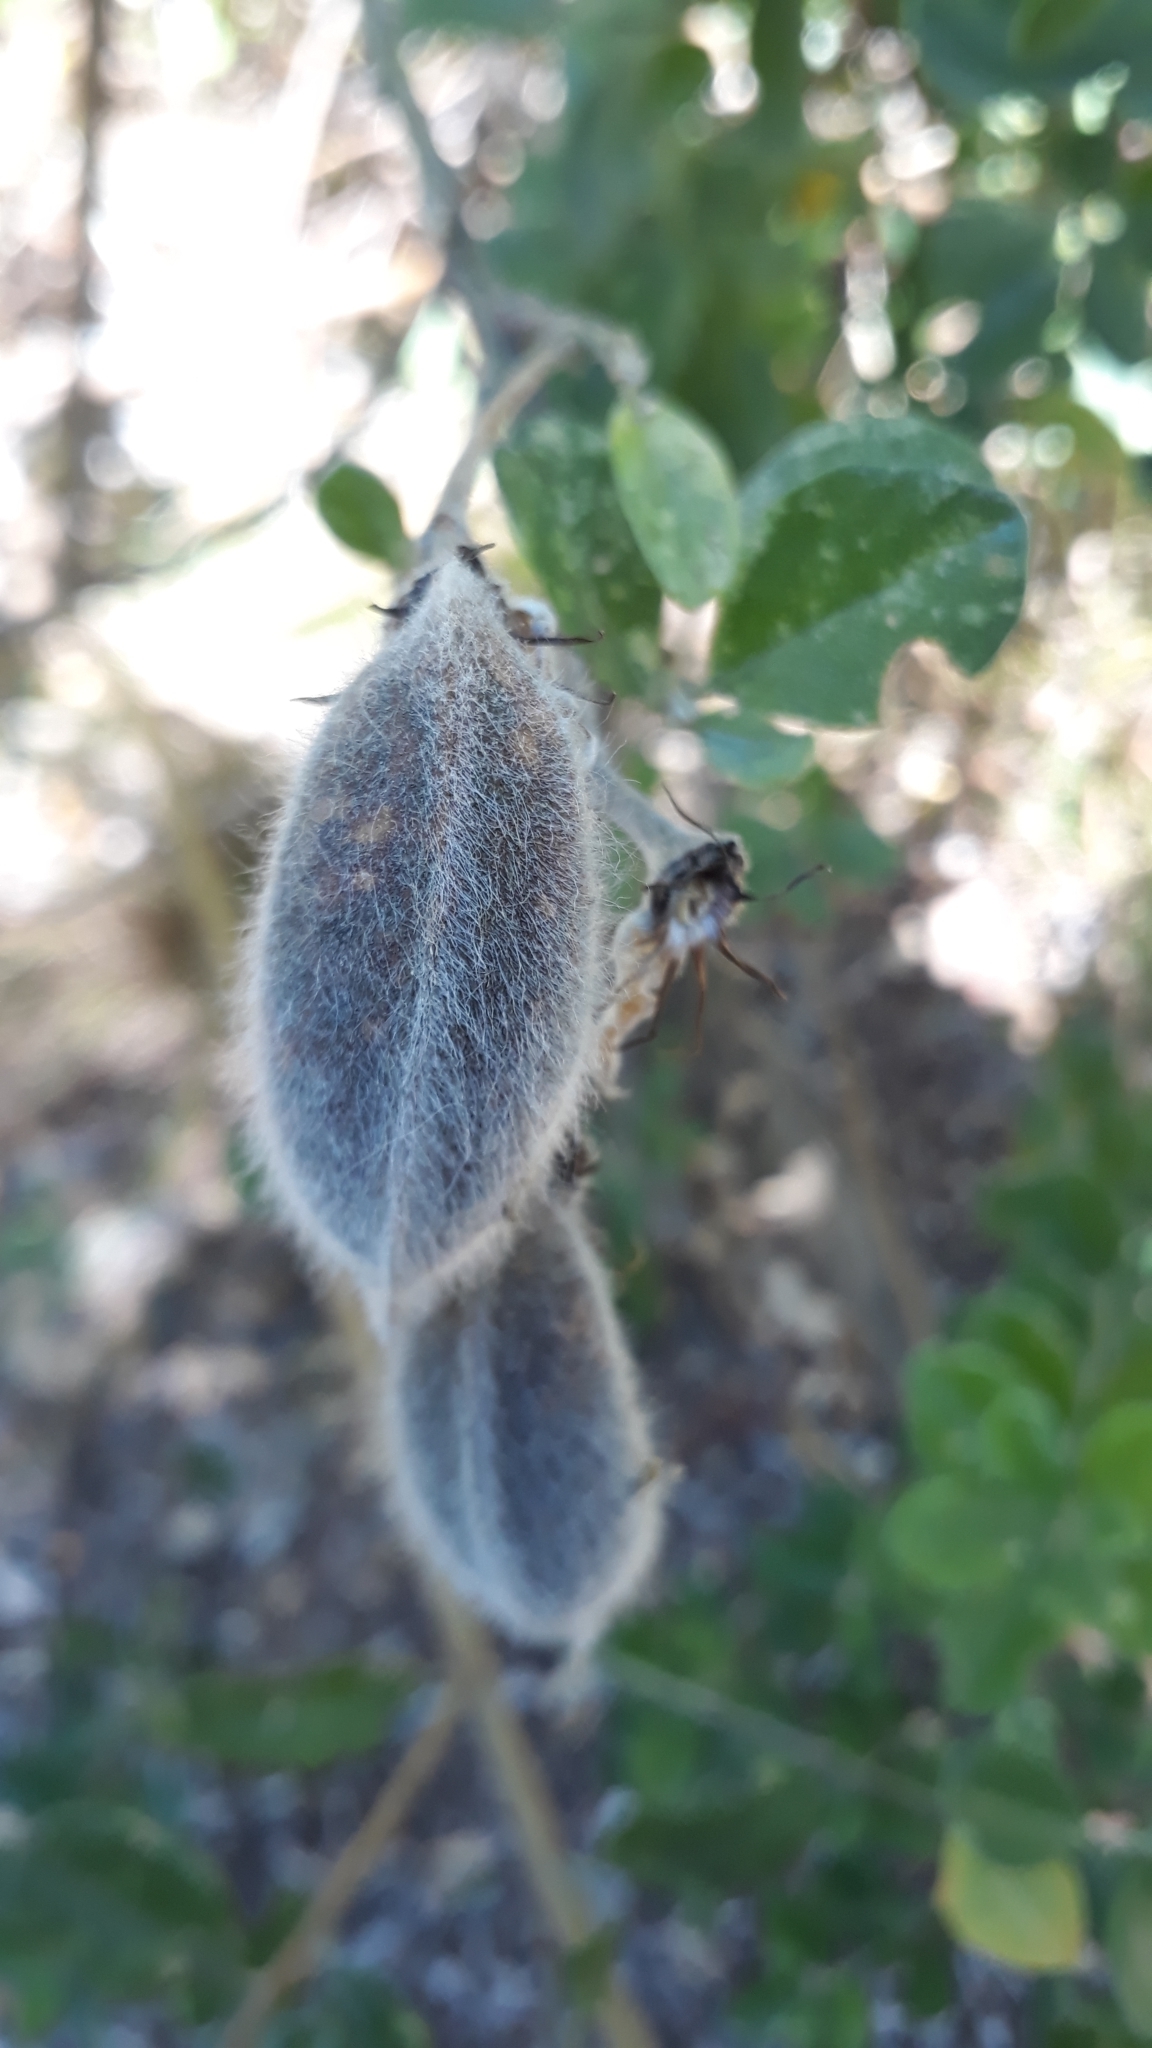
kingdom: Plantae
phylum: Tracheophyta
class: Magnoliopsida
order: Fabales
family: Fabaceae
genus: Podalyria
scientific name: Podalyria calyptrata
